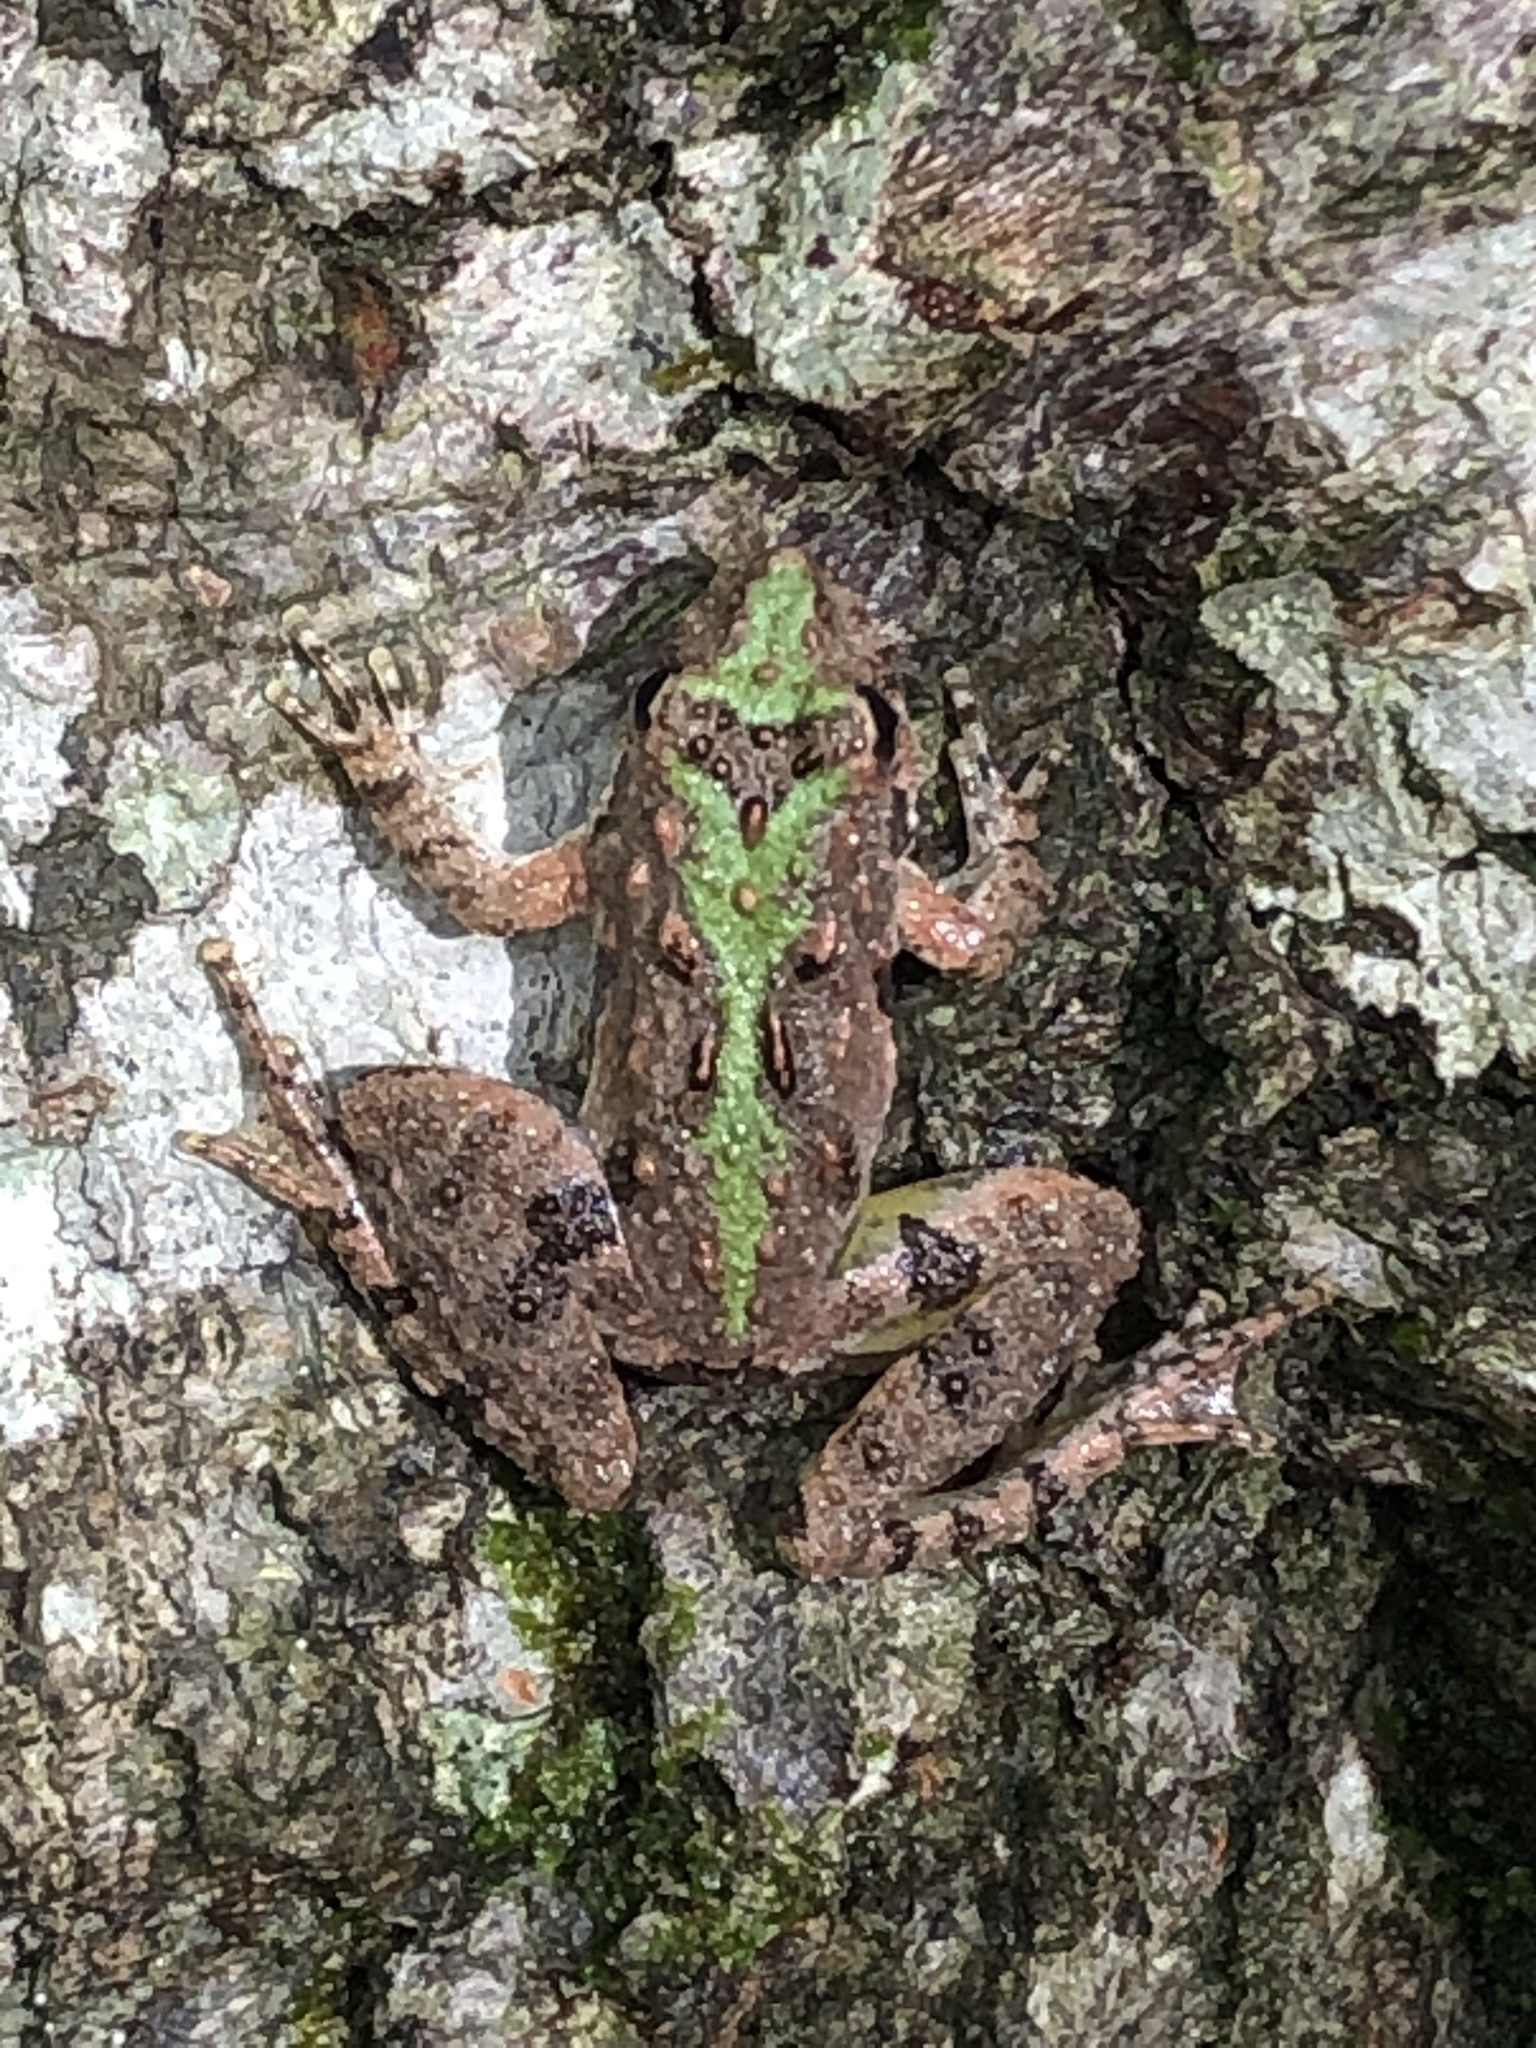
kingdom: Animalia
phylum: Chordata
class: Amphibia
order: Anura
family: Hylidae
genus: Acris
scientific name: Acris crepitans
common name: Northern cricket frog
